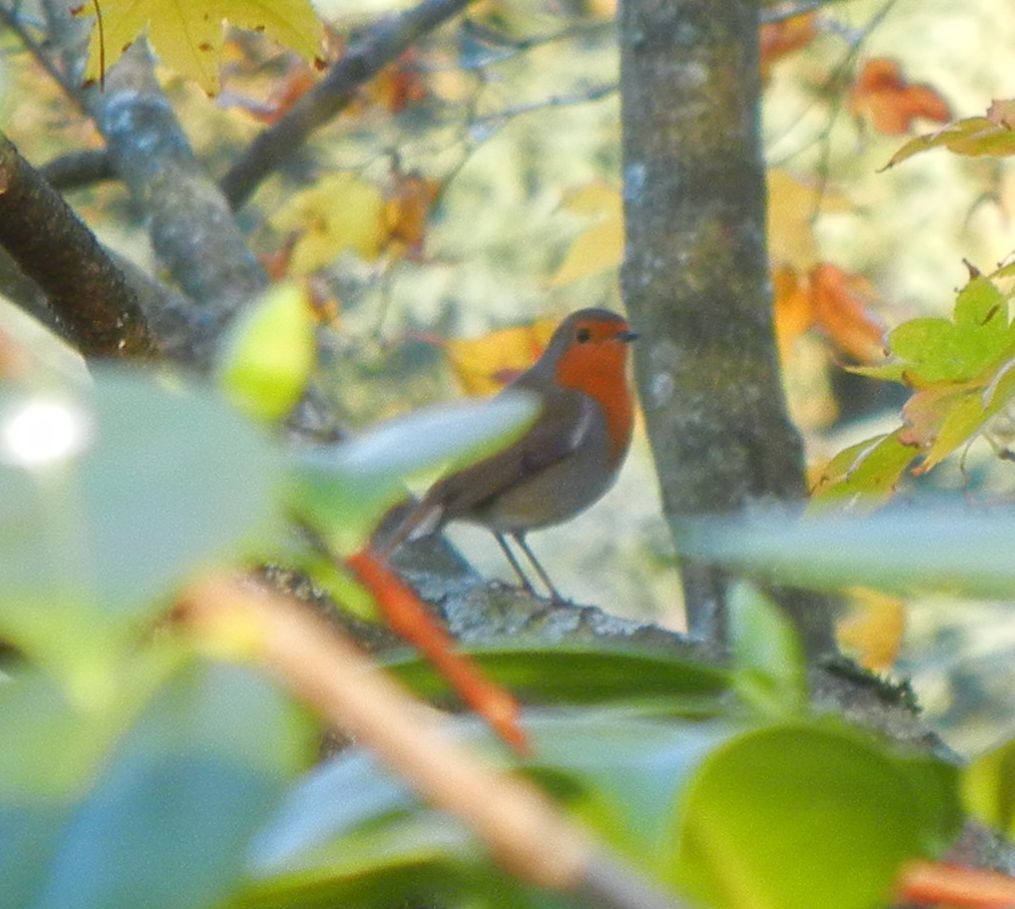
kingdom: Animalia
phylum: Chordata
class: Aves
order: Passeriformes
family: Muscicapidae
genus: Erithacus
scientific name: Erithacus rubecula
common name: European robin
